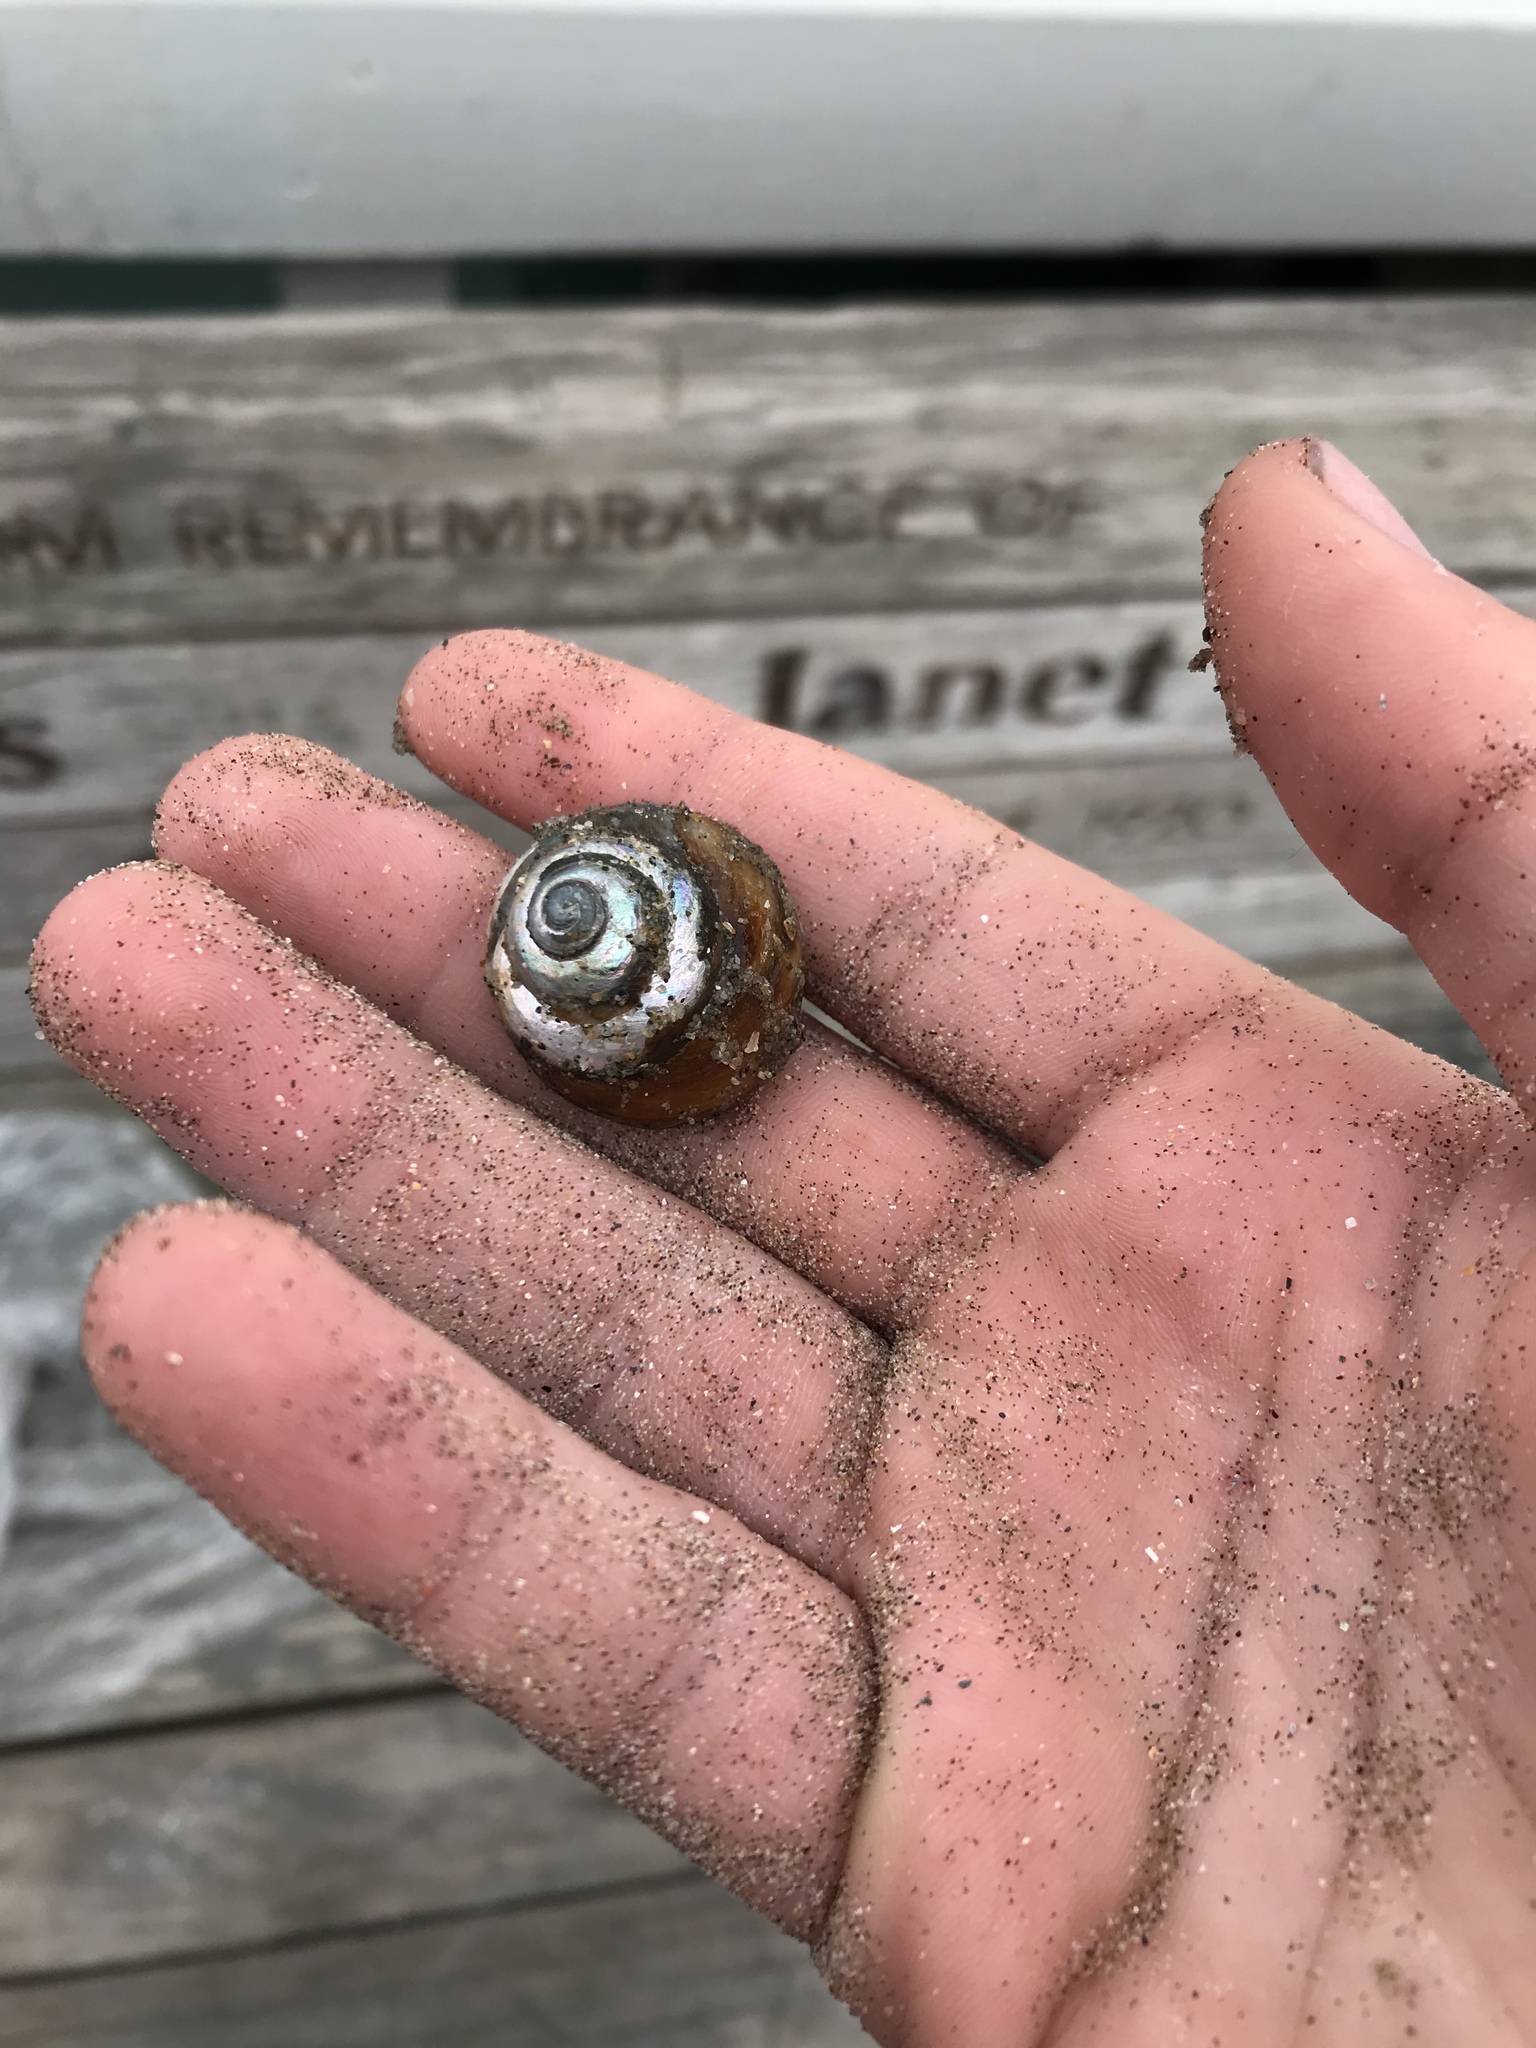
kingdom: Animalia
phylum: Mollusca
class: Gastropoda
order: Trochida
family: Tegulidae
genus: Tegula
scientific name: Tegula brunnea
